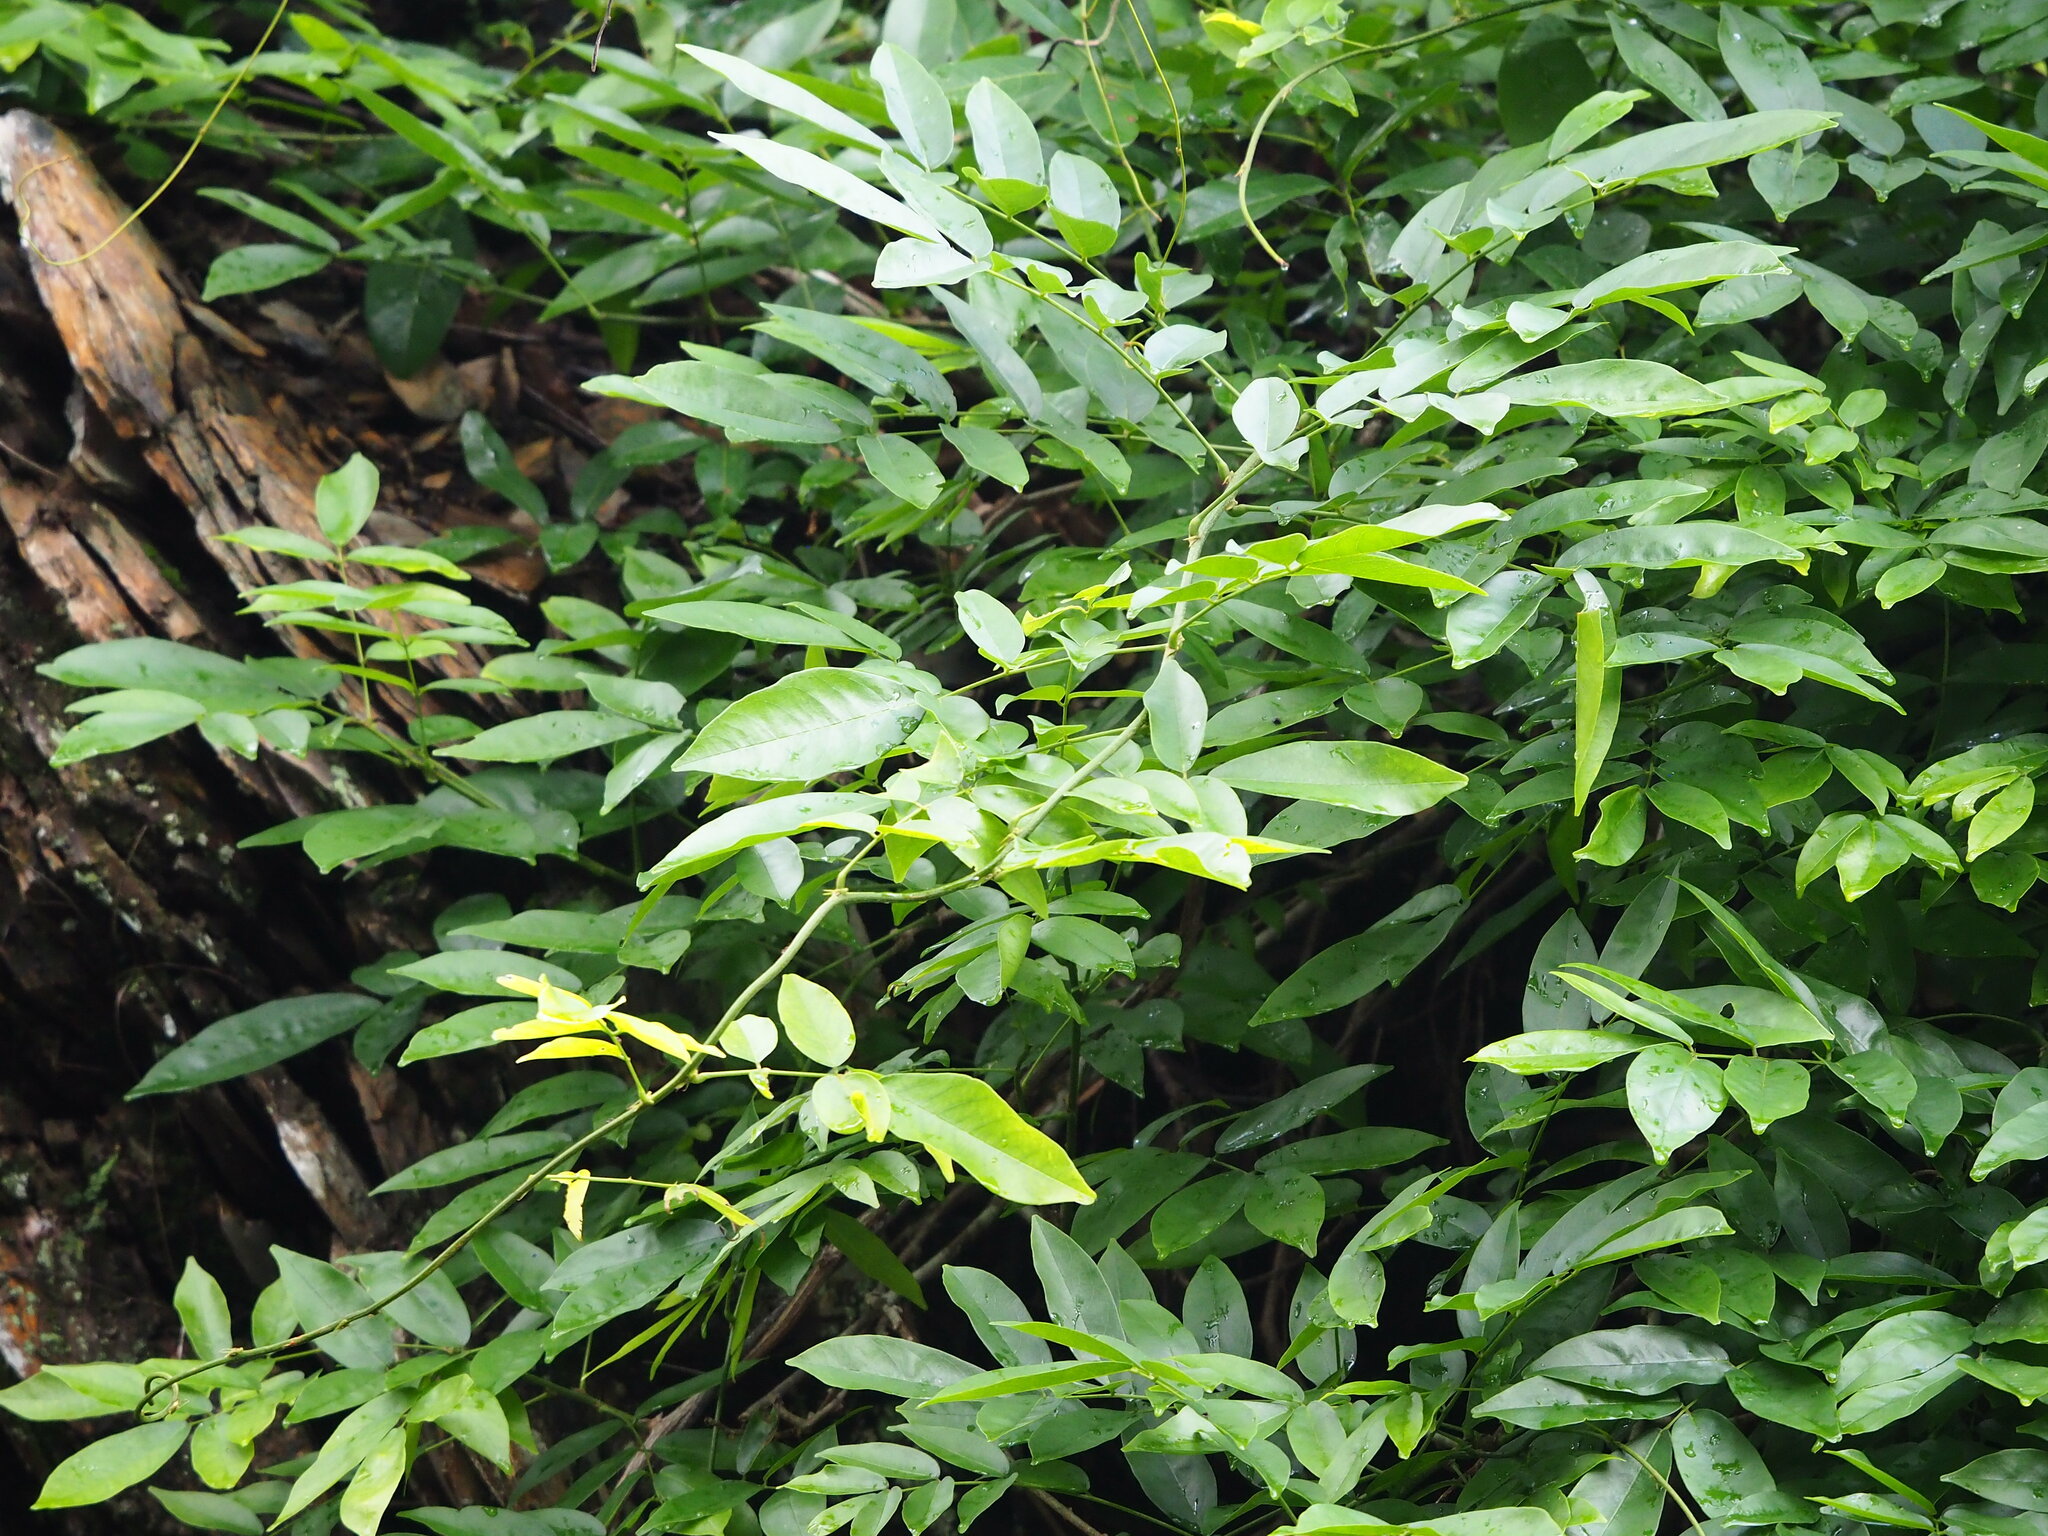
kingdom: Plantae
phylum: Tracheophyta
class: Magnoliopsida
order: Fabales
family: Fabaceae
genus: Wisteriopsis
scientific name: Wisteriopsis reticulata
